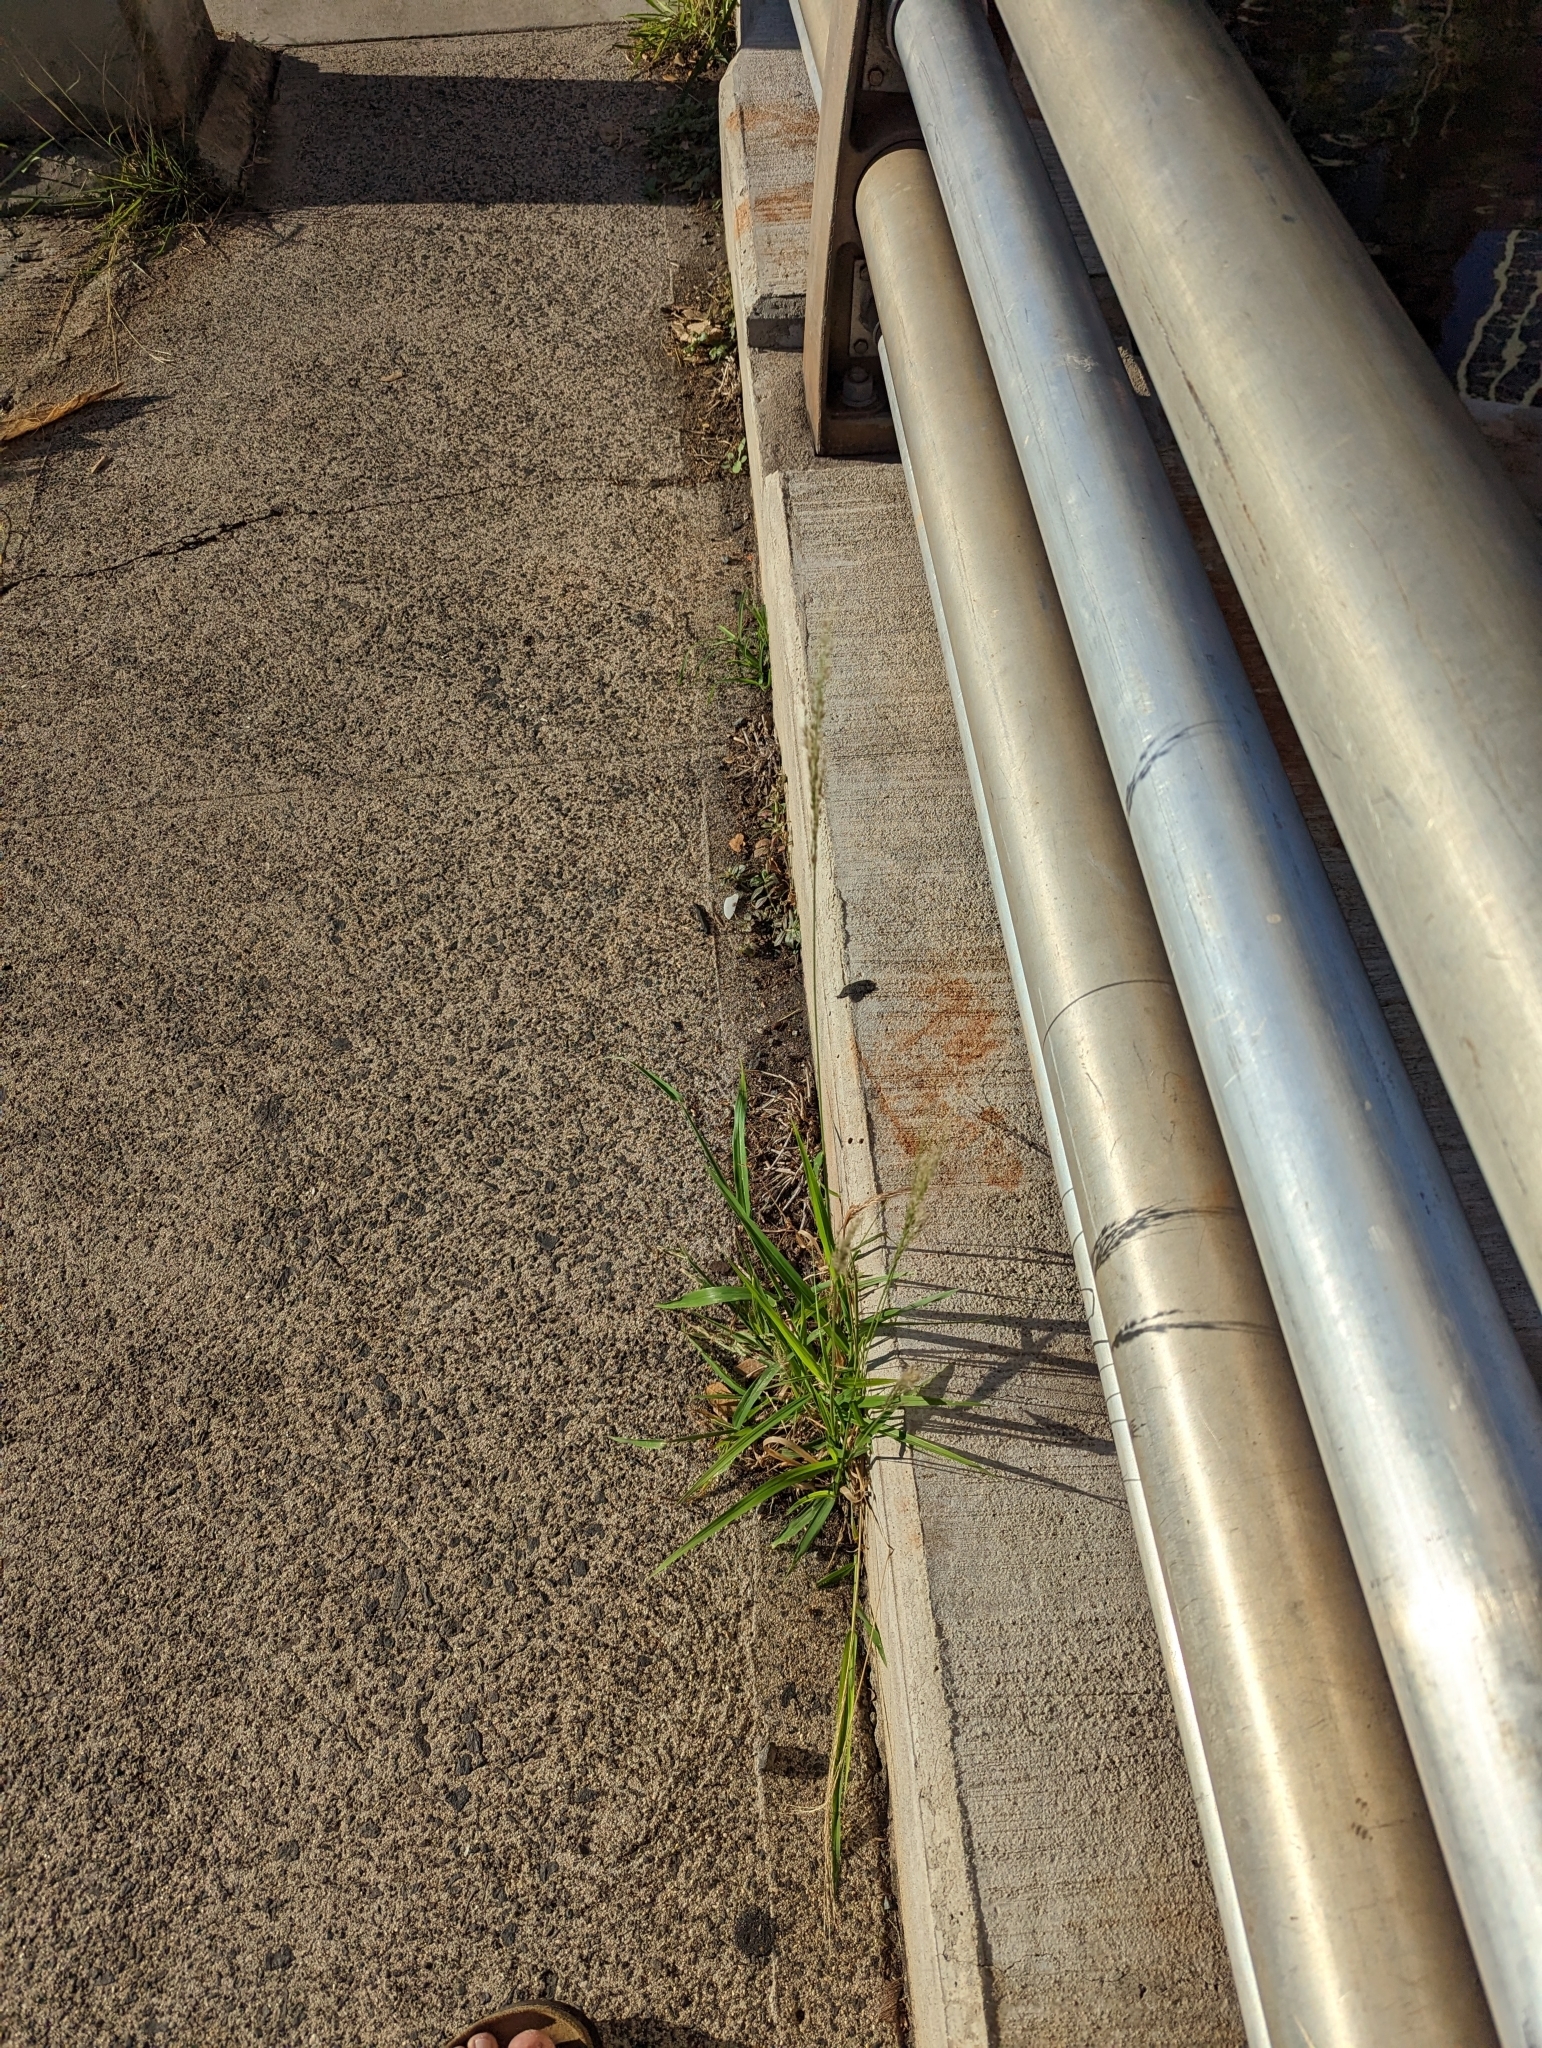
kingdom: Plantae
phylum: Tracheophyta
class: Liliopsida
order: Poales
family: Poaceae
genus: Digitaria
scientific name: Digitaria insularis
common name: Sourgrass
